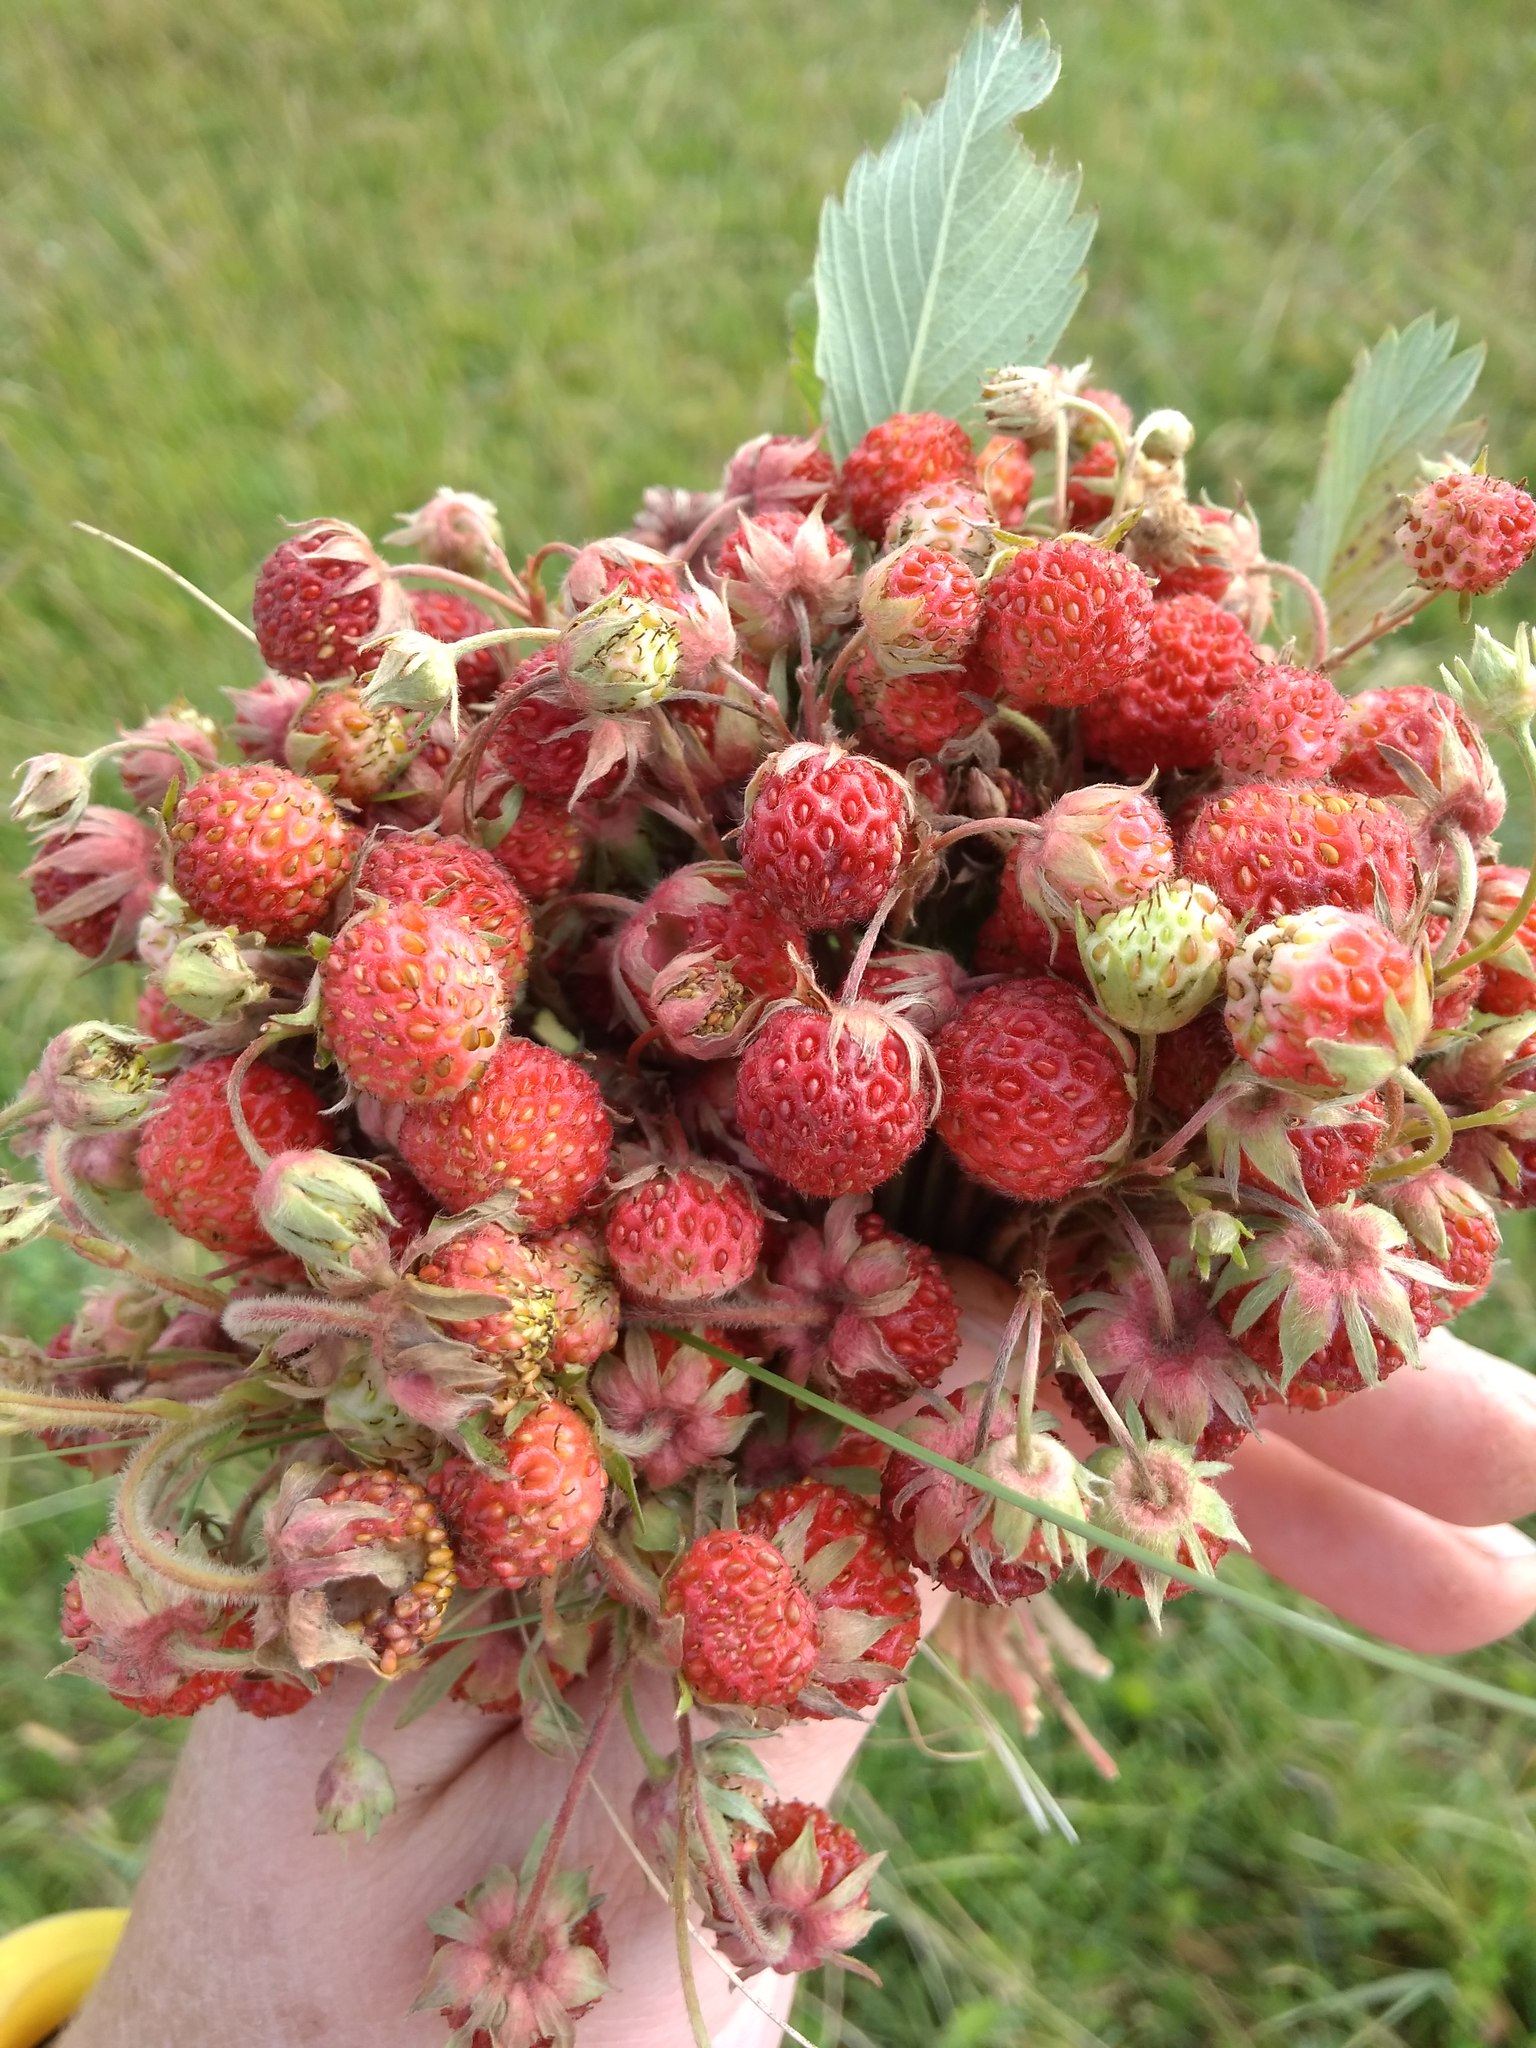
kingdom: Plantae
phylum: Tracheophyta
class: Magnoliopsida
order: Rosales
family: Rosaceae
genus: Fragaria
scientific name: Fragaria viridis
